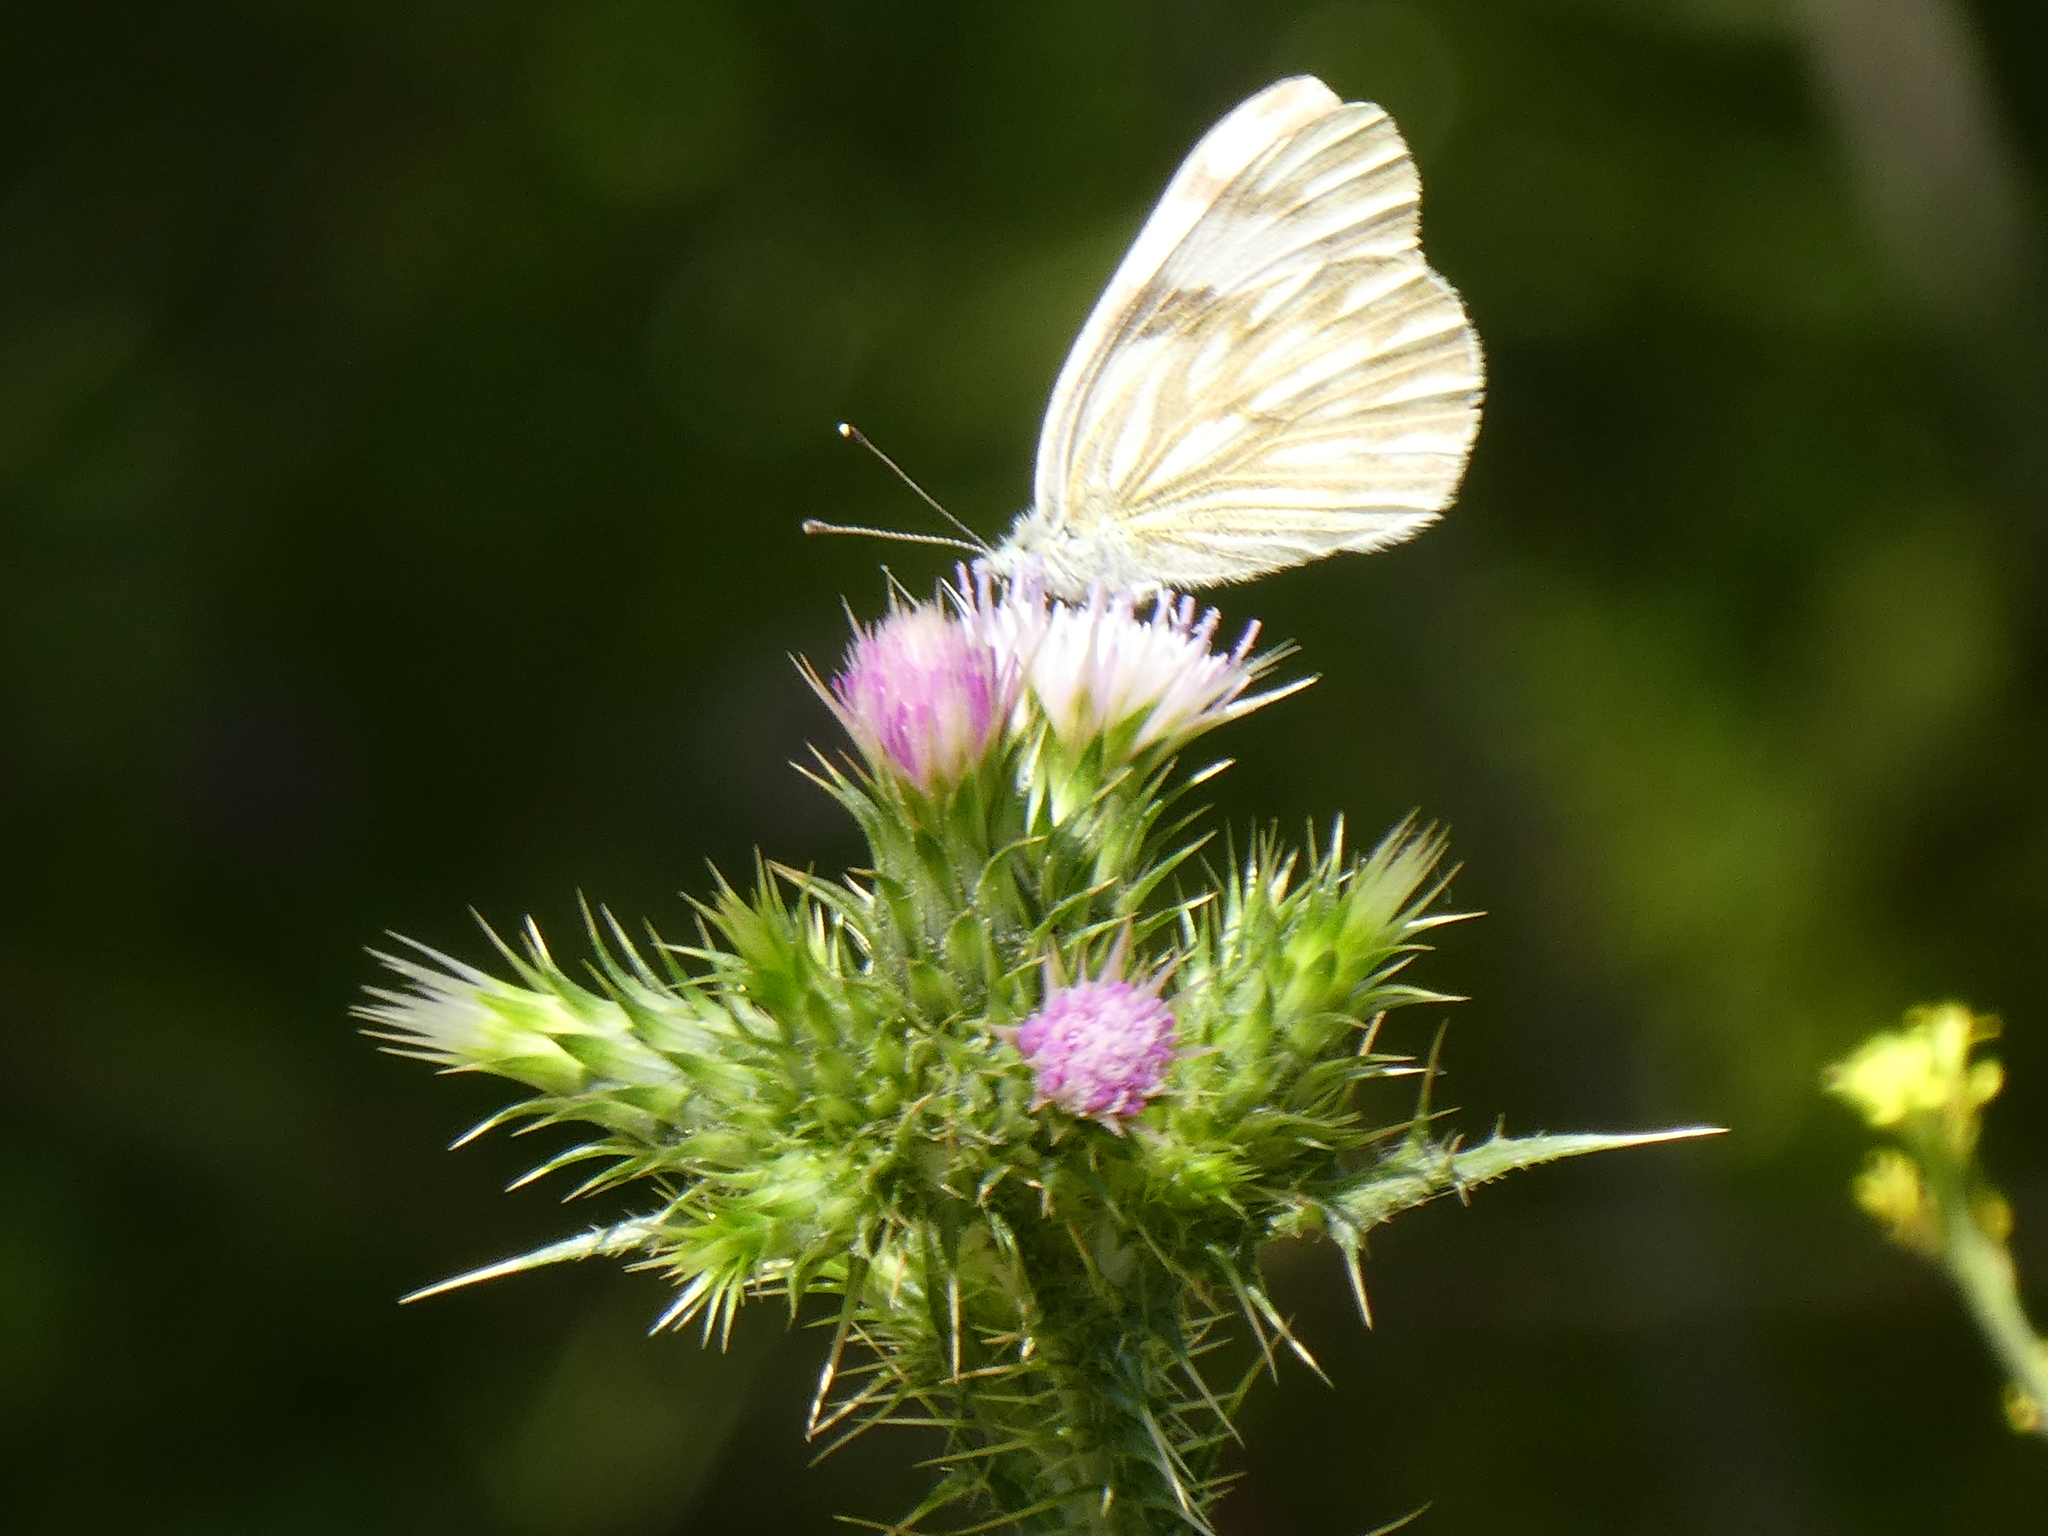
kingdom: Animalia
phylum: Arthropoda
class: Insecta
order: Lepidoptera
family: Pieridae
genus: Pontia
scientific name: Pontia protodice
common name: Checkered white
